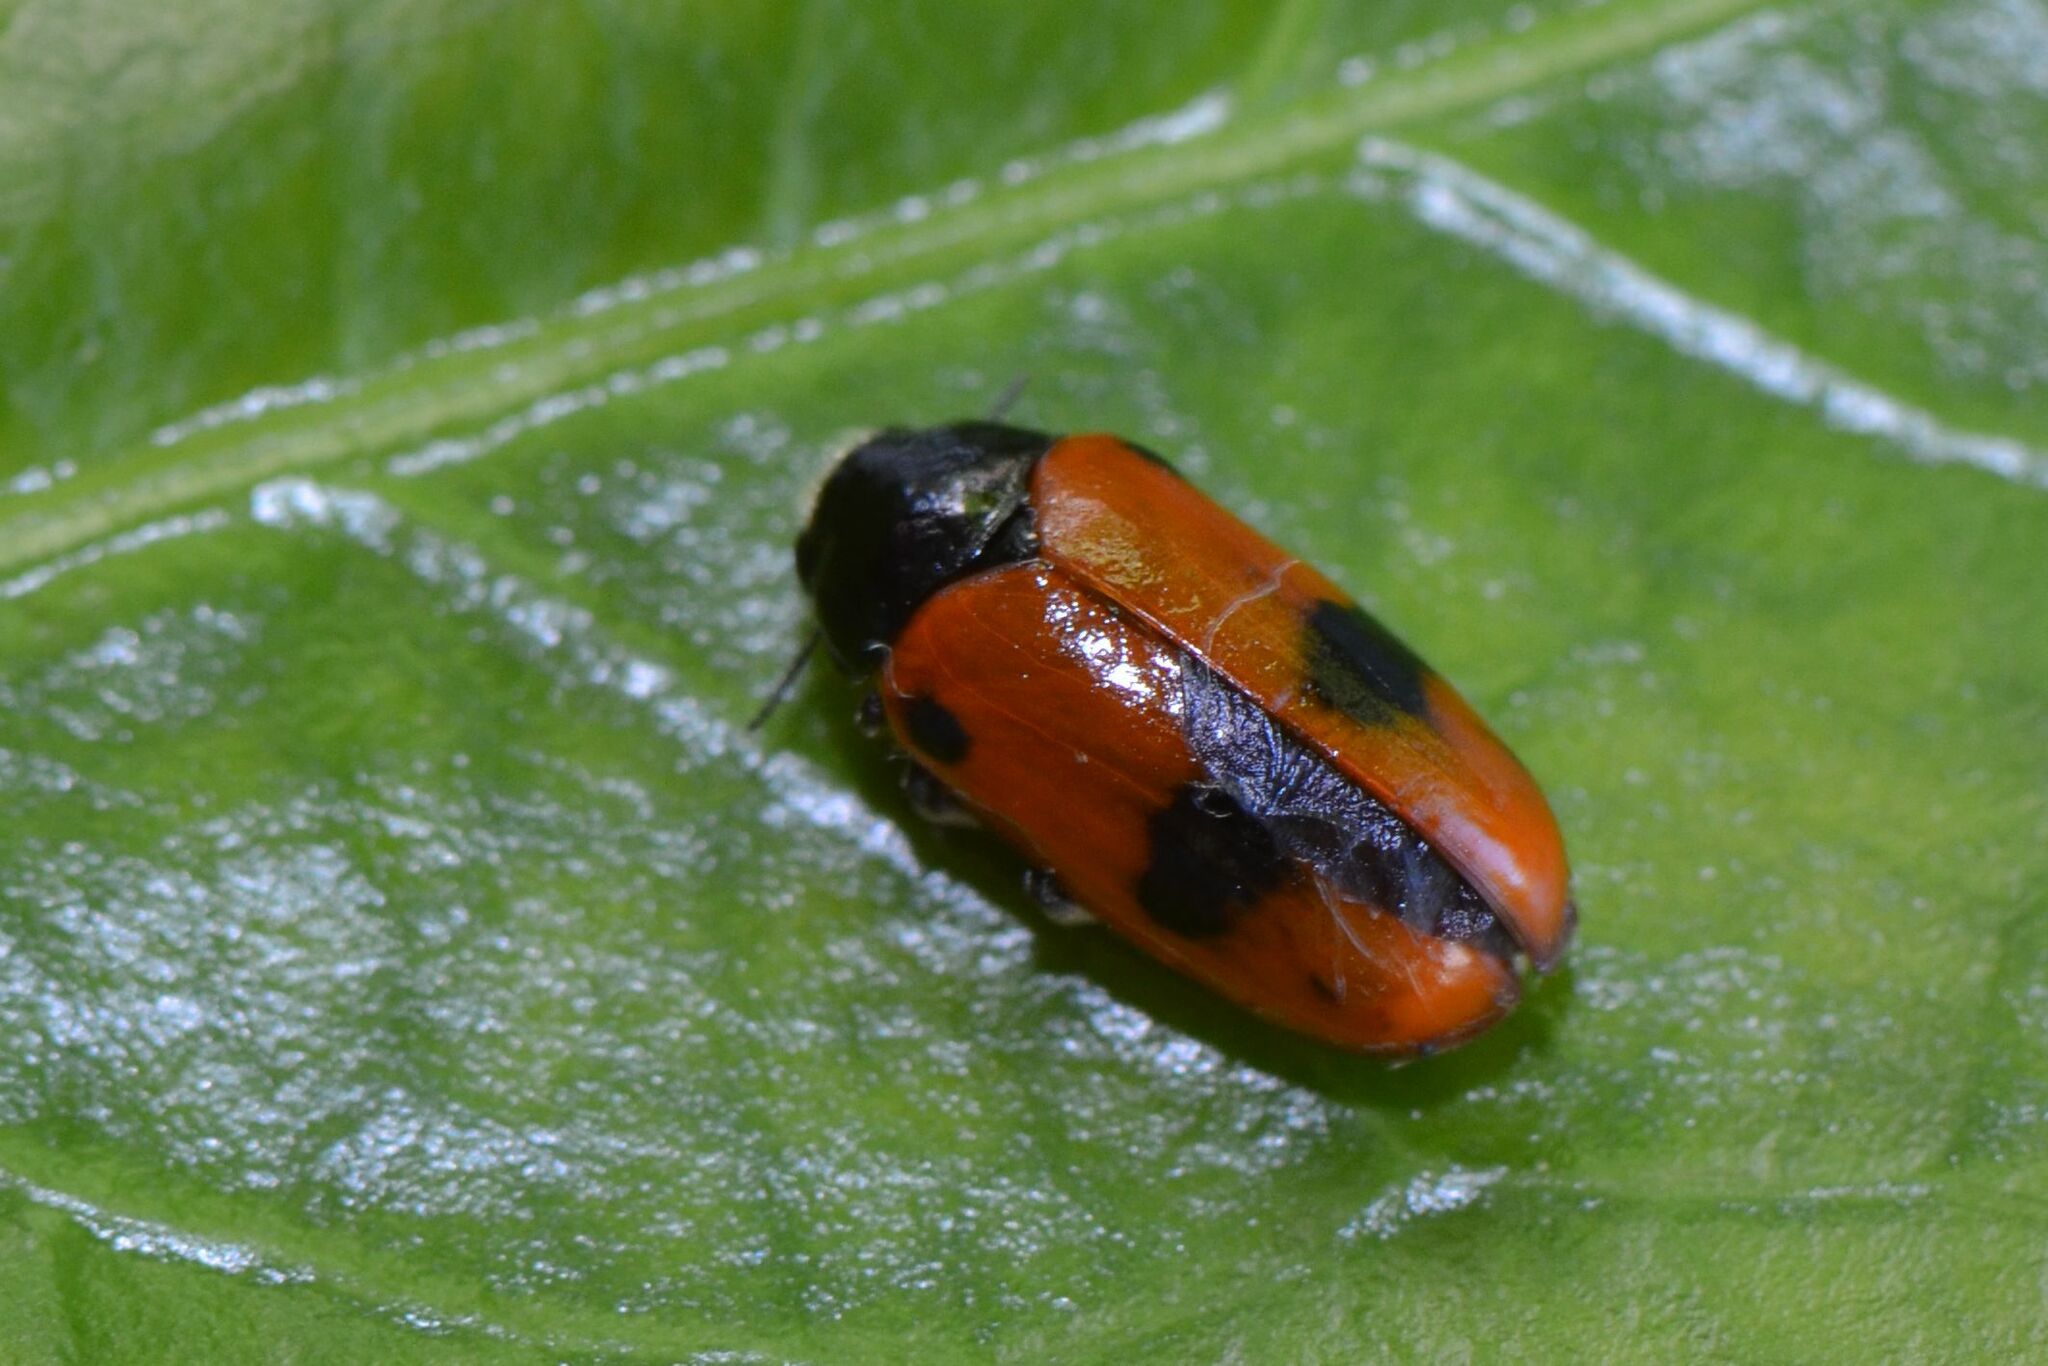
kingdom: Animalia
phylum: Arthropoda
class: Insecta
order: Coleoptera
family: Chrysomelidae
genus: Clytra
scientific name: Clytra laeviuscula
